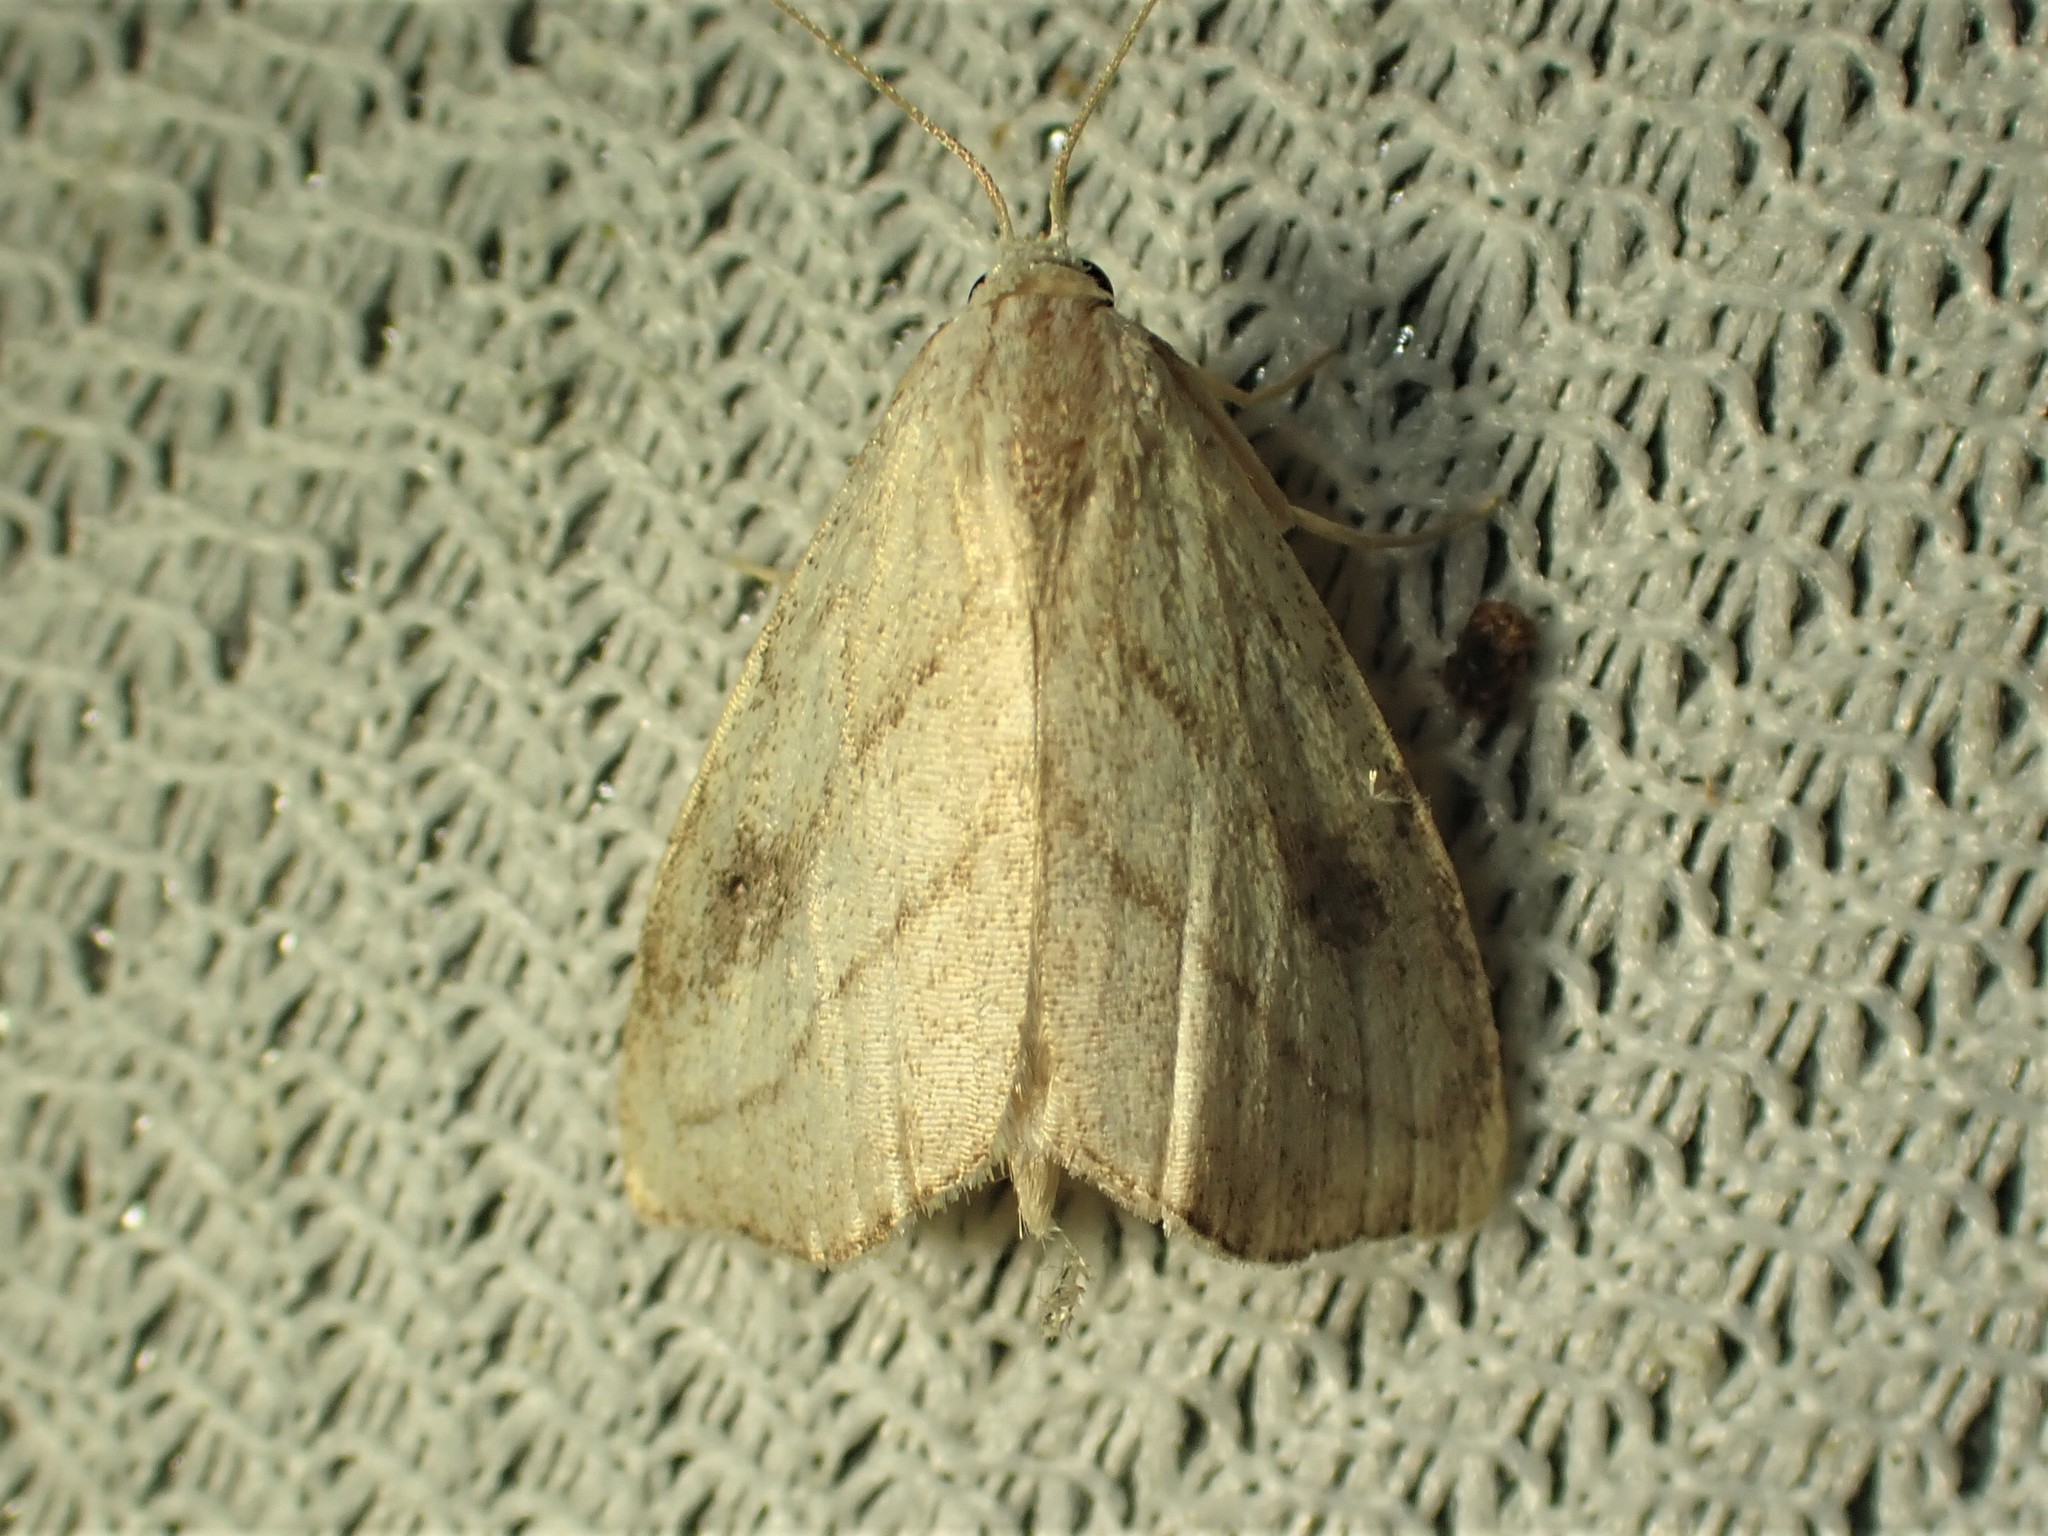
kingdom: Animalia
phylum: Arthropoda
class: Insecta
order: Lepidoptera
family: Erebidae
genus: Rivula
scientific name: Rivula propinqualis
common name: Spotted grass moth
